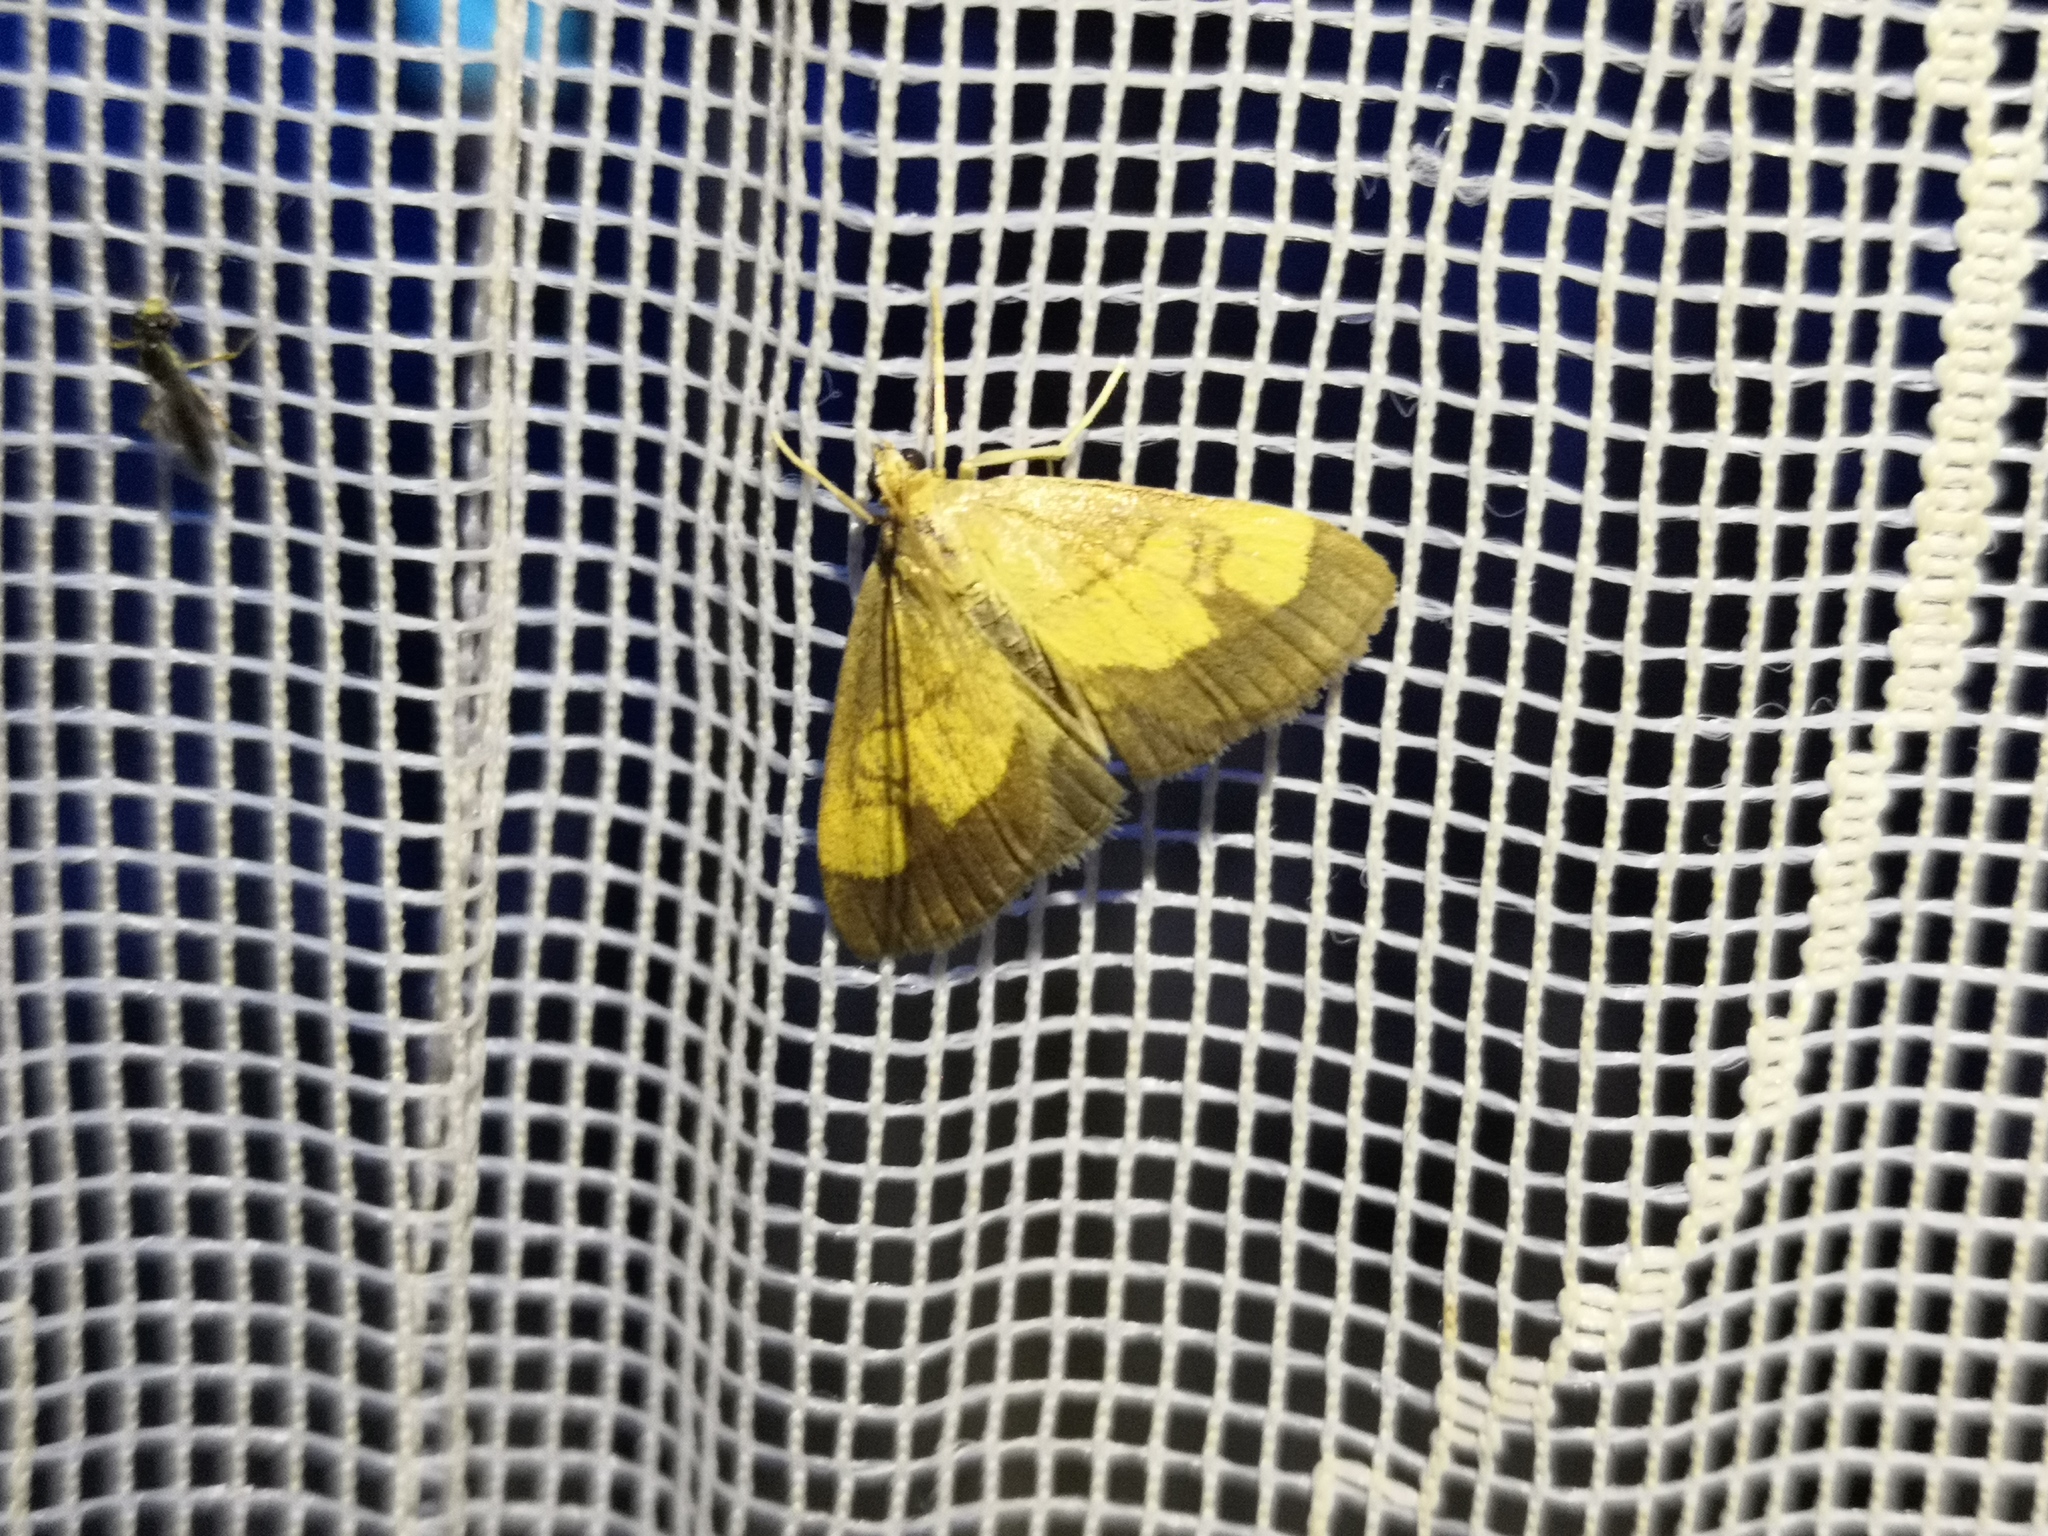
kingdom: Animalia
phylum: Arthropoda
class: Insecta
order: Lepidoptera
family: Crambidae
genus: Evergestis
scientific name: Evergestis limbata
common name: Dark bordered pearl
